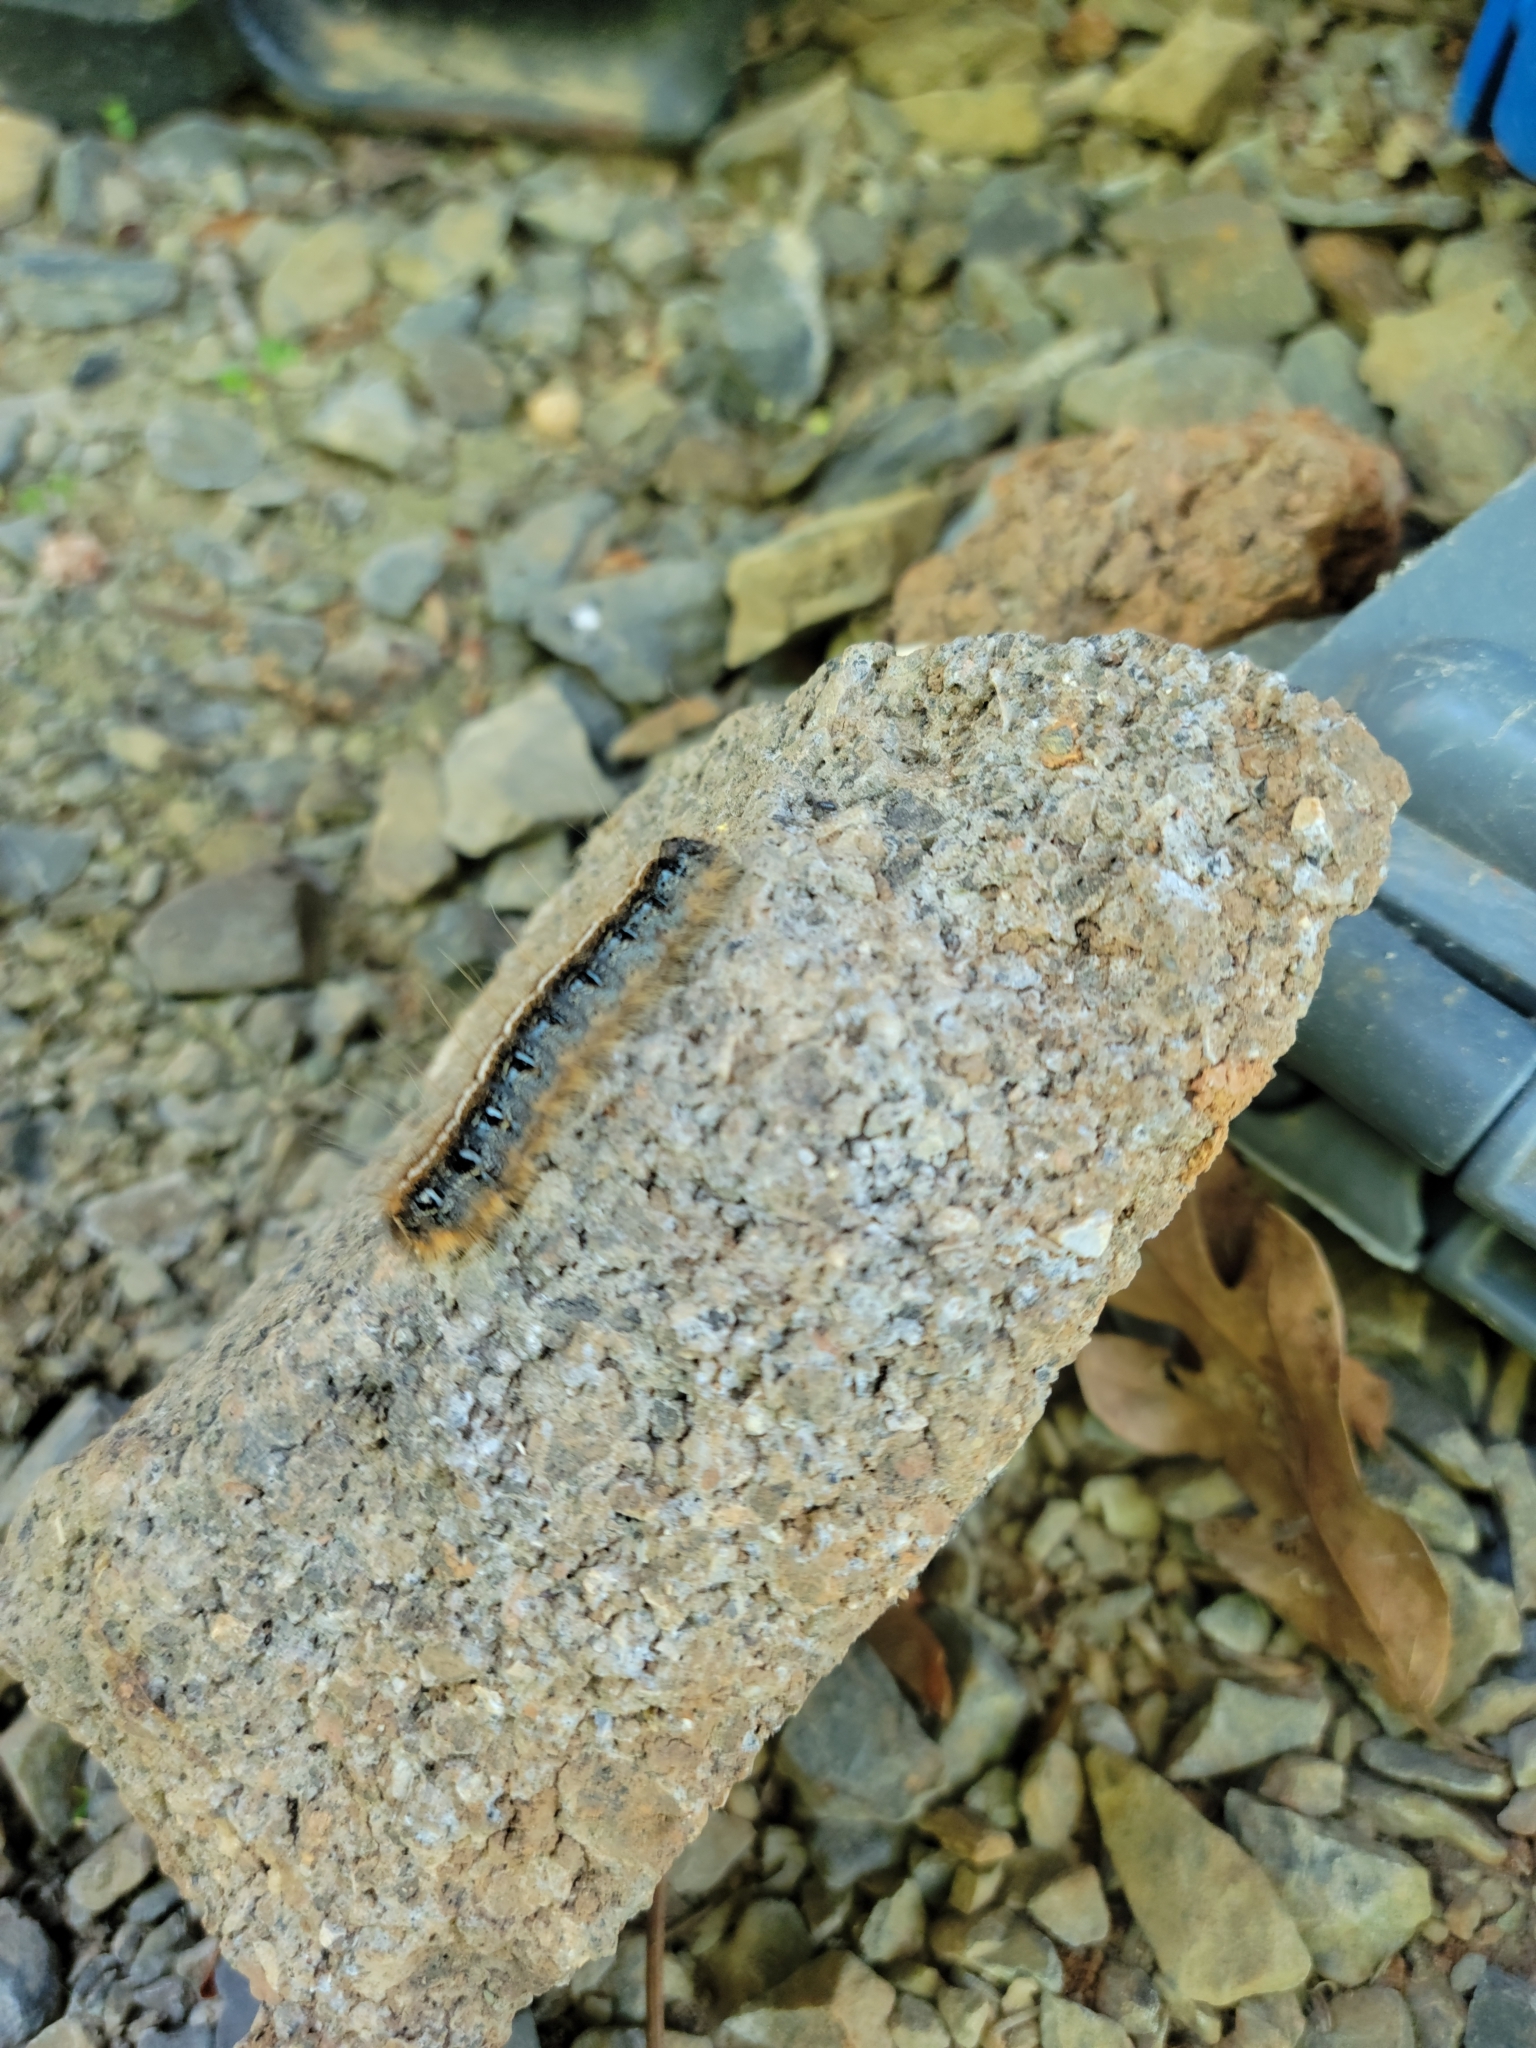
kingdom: Animalia
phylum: Arthropoda
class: Insecta
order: Lepidoptera
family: Lasiocampidae
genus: Malacosoma
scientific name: Malacosoma americana
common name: Eastern tent caterpillar moth
